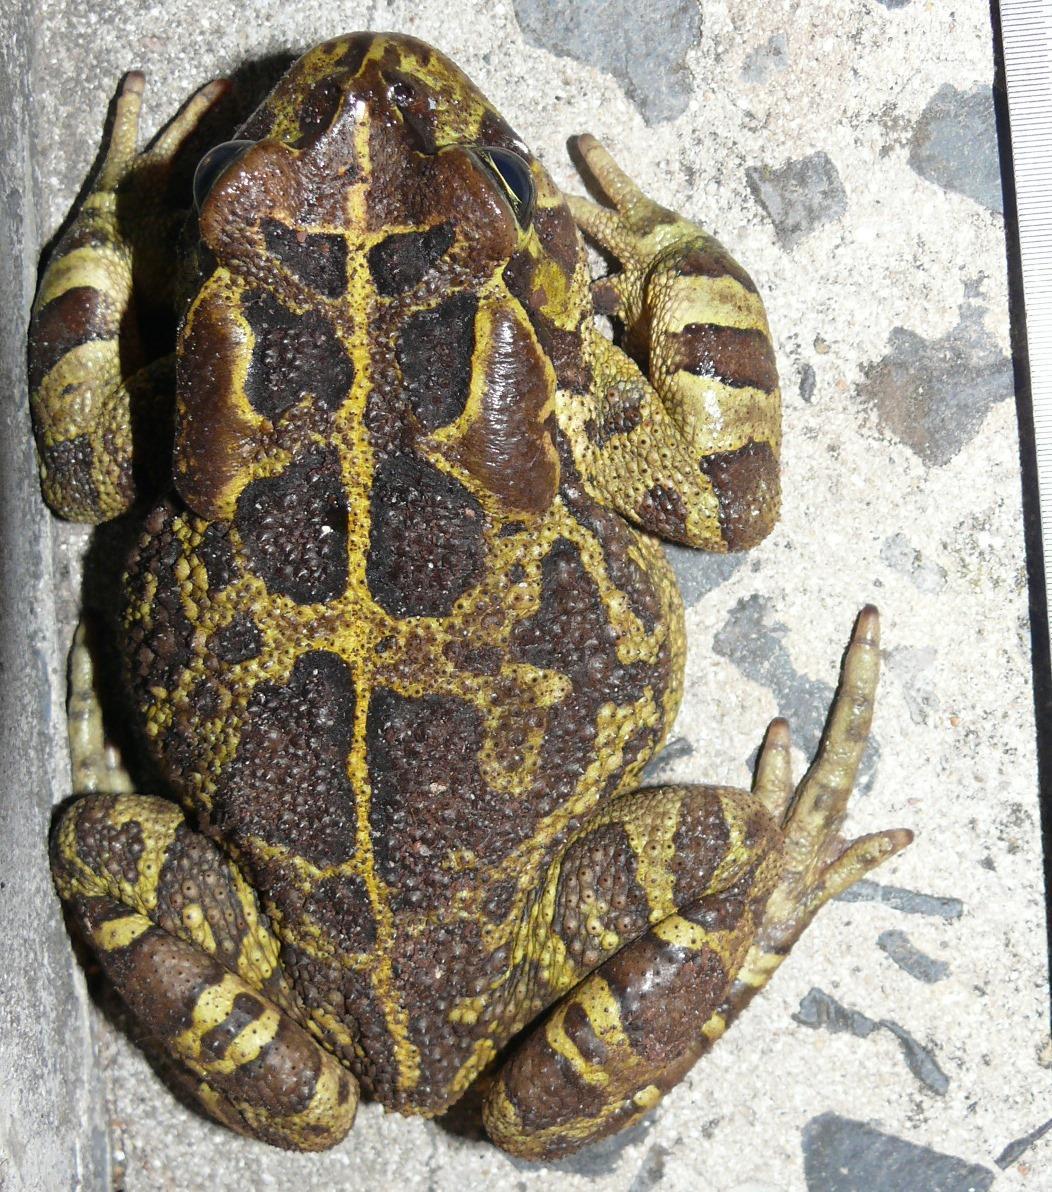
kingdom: Animalia
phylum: Chordata
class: Amphibia
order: Anura
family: Bufonidae
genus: Sclerophrys
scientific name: Sclerophrys pantherina
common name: Panther toad
